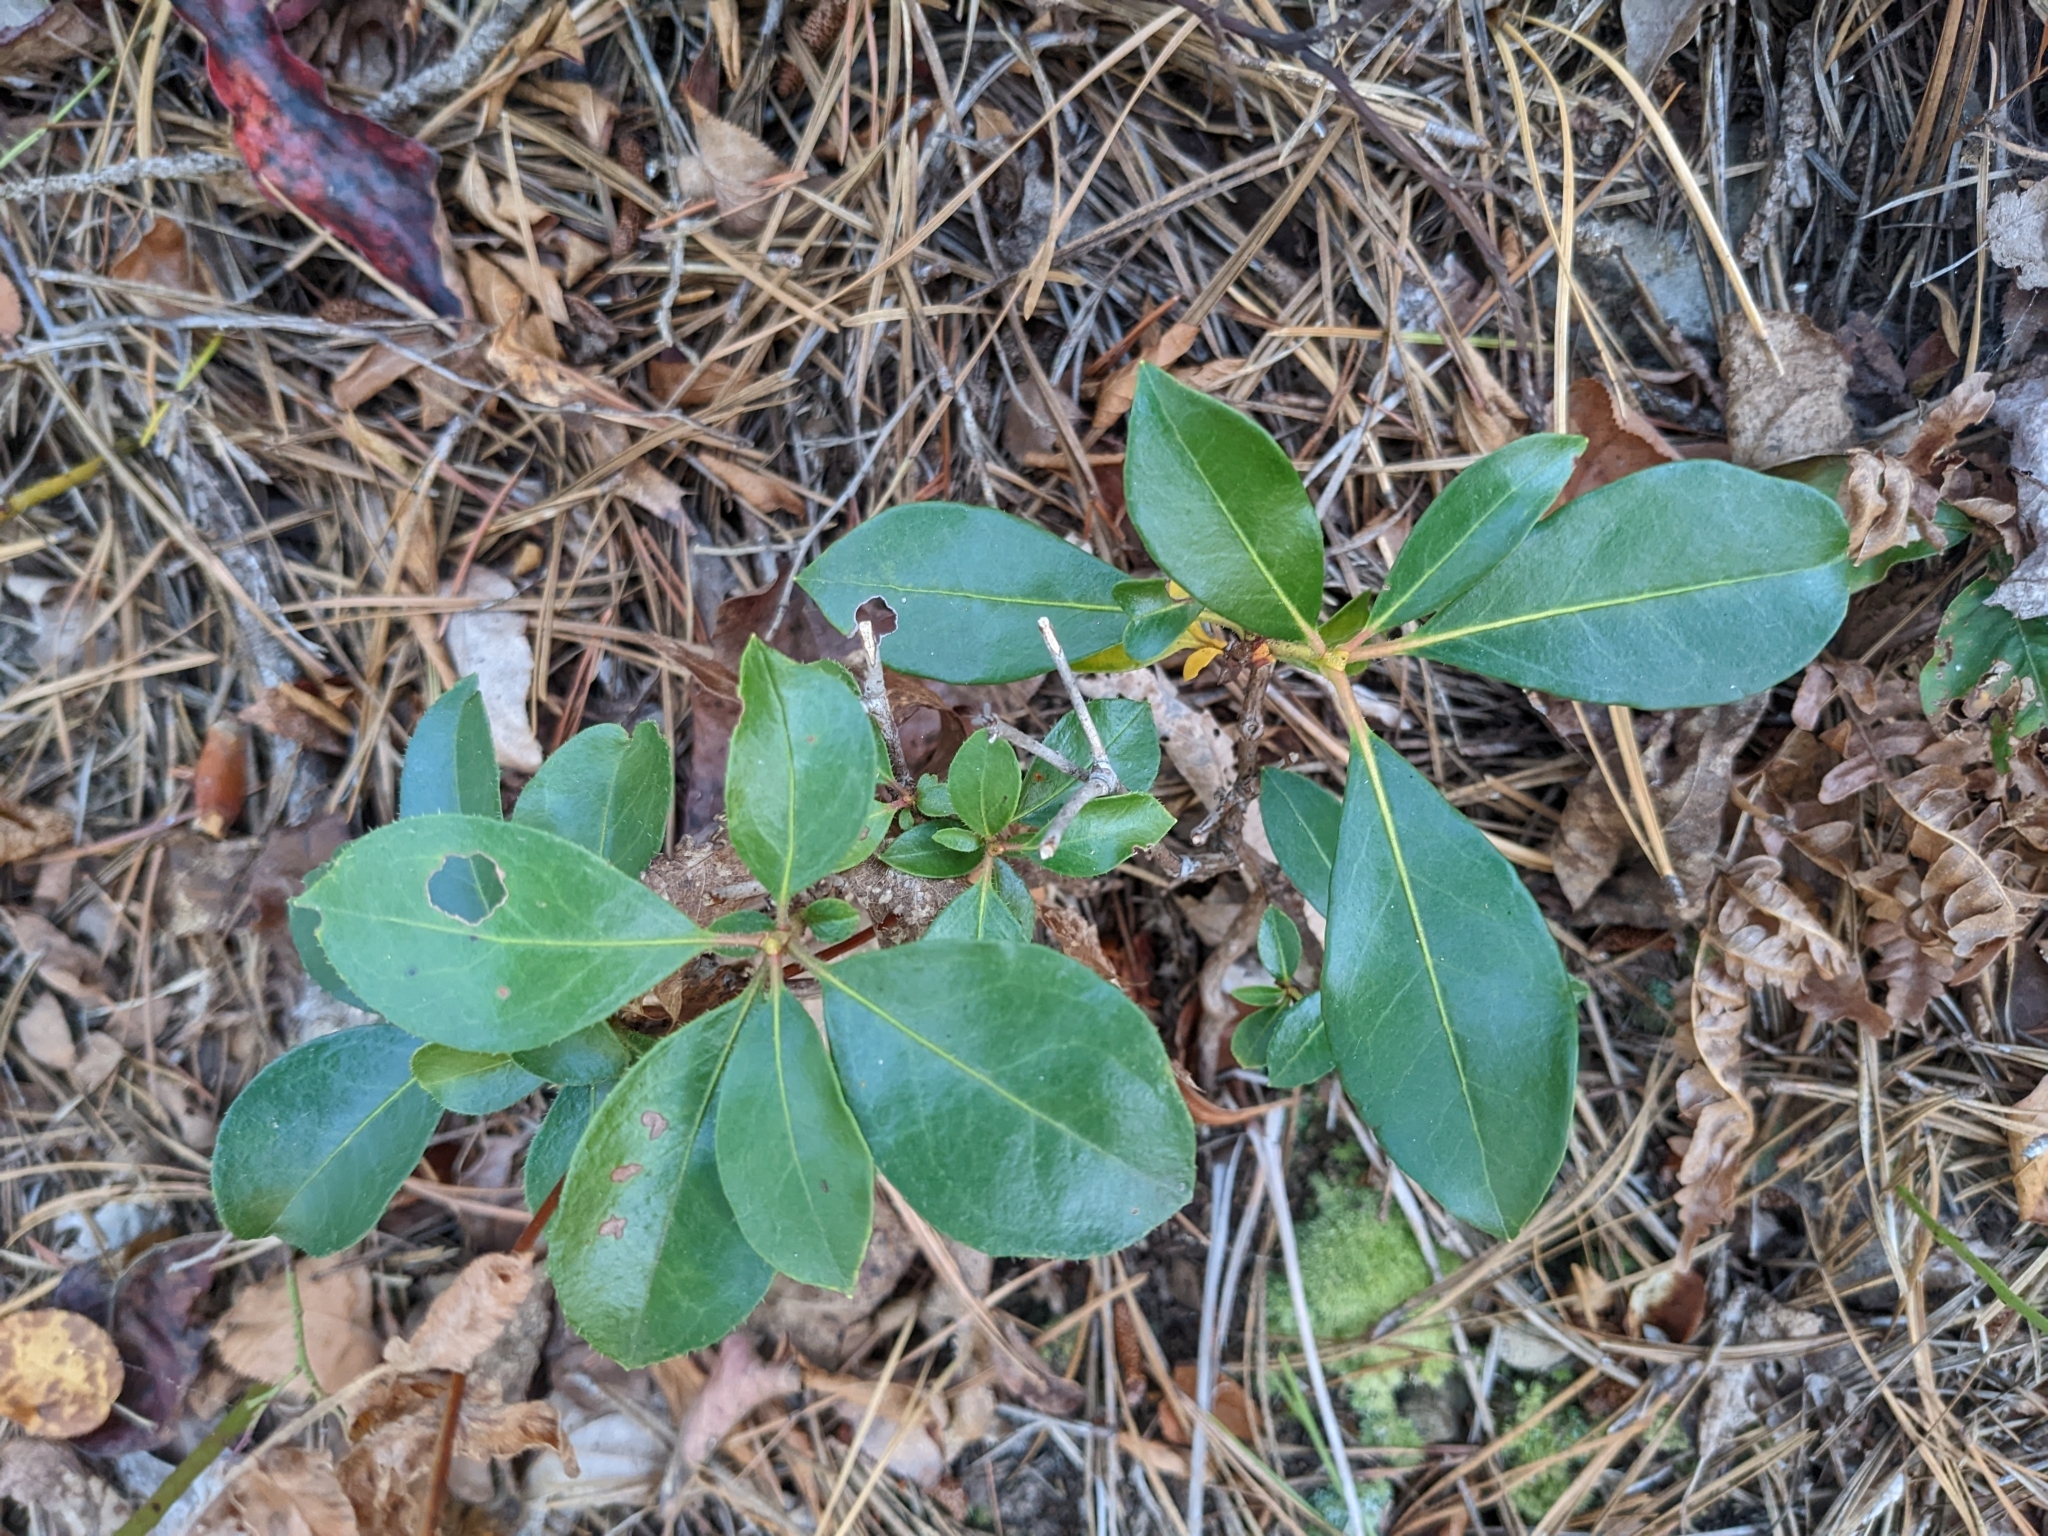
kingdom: Plantae
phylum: Tracheophyta
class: Magnoliopsida
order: Ericales
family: Ericaceae
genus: Kalmia
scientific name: Kalmia latifolia
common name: Mountain-laurel
